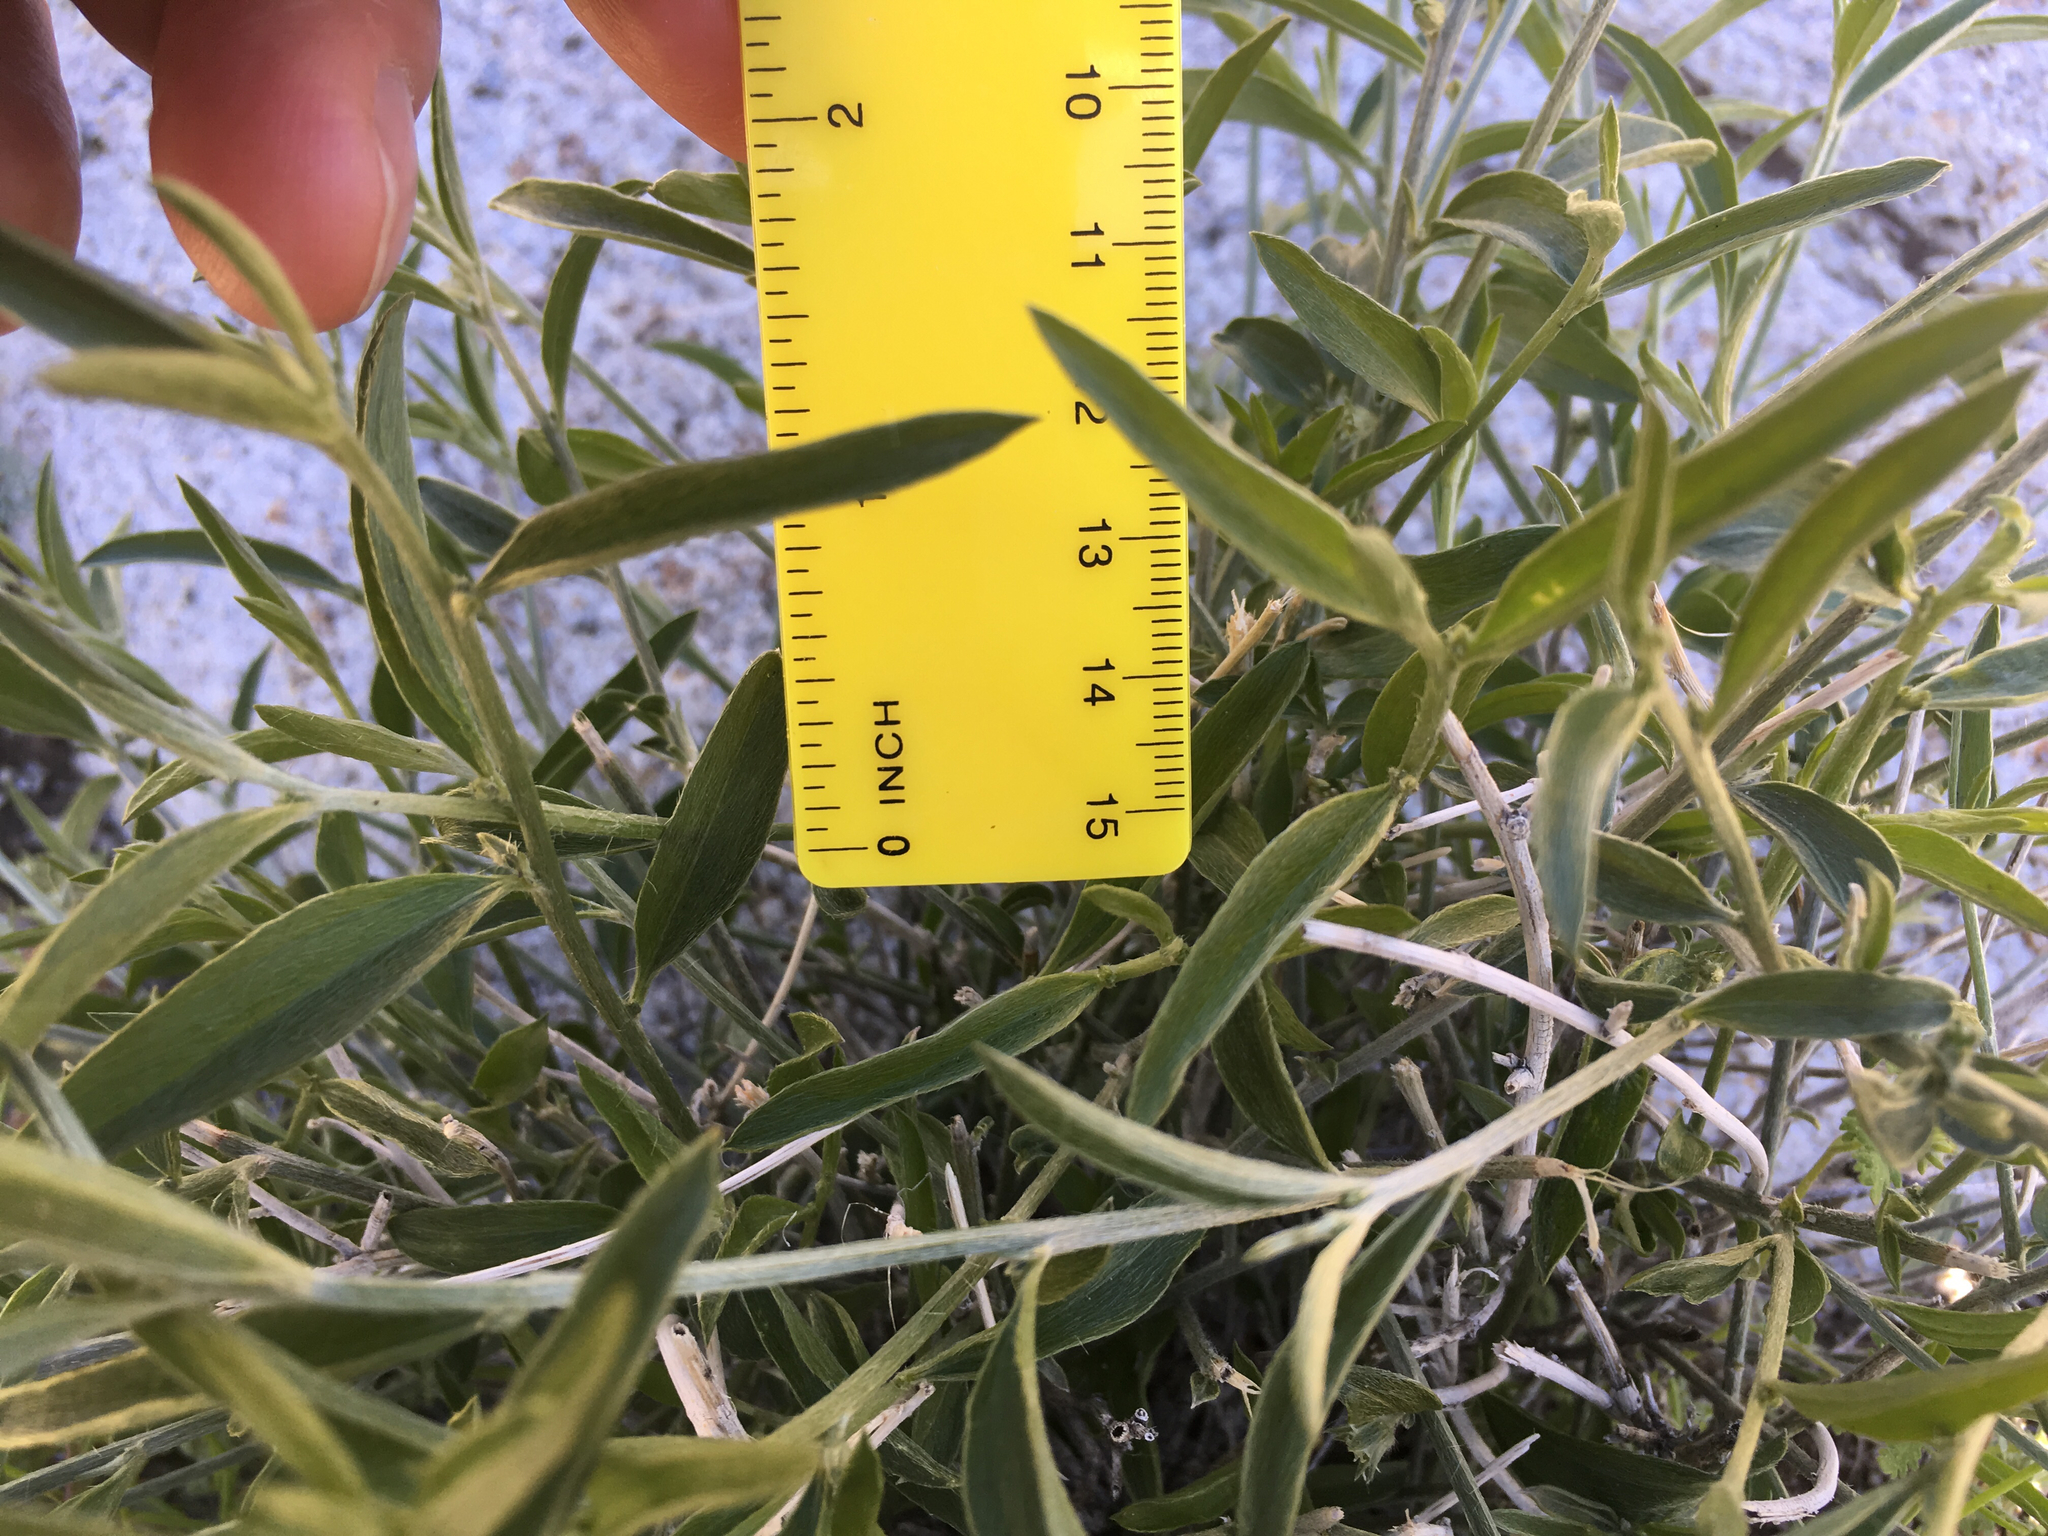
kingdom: Plantae
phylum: Tracheophyta
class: Magnoliopsida
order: Malpighiales
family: Euphorbiaceae
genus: Ditaxis
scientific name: Ditaxis lanceolata
